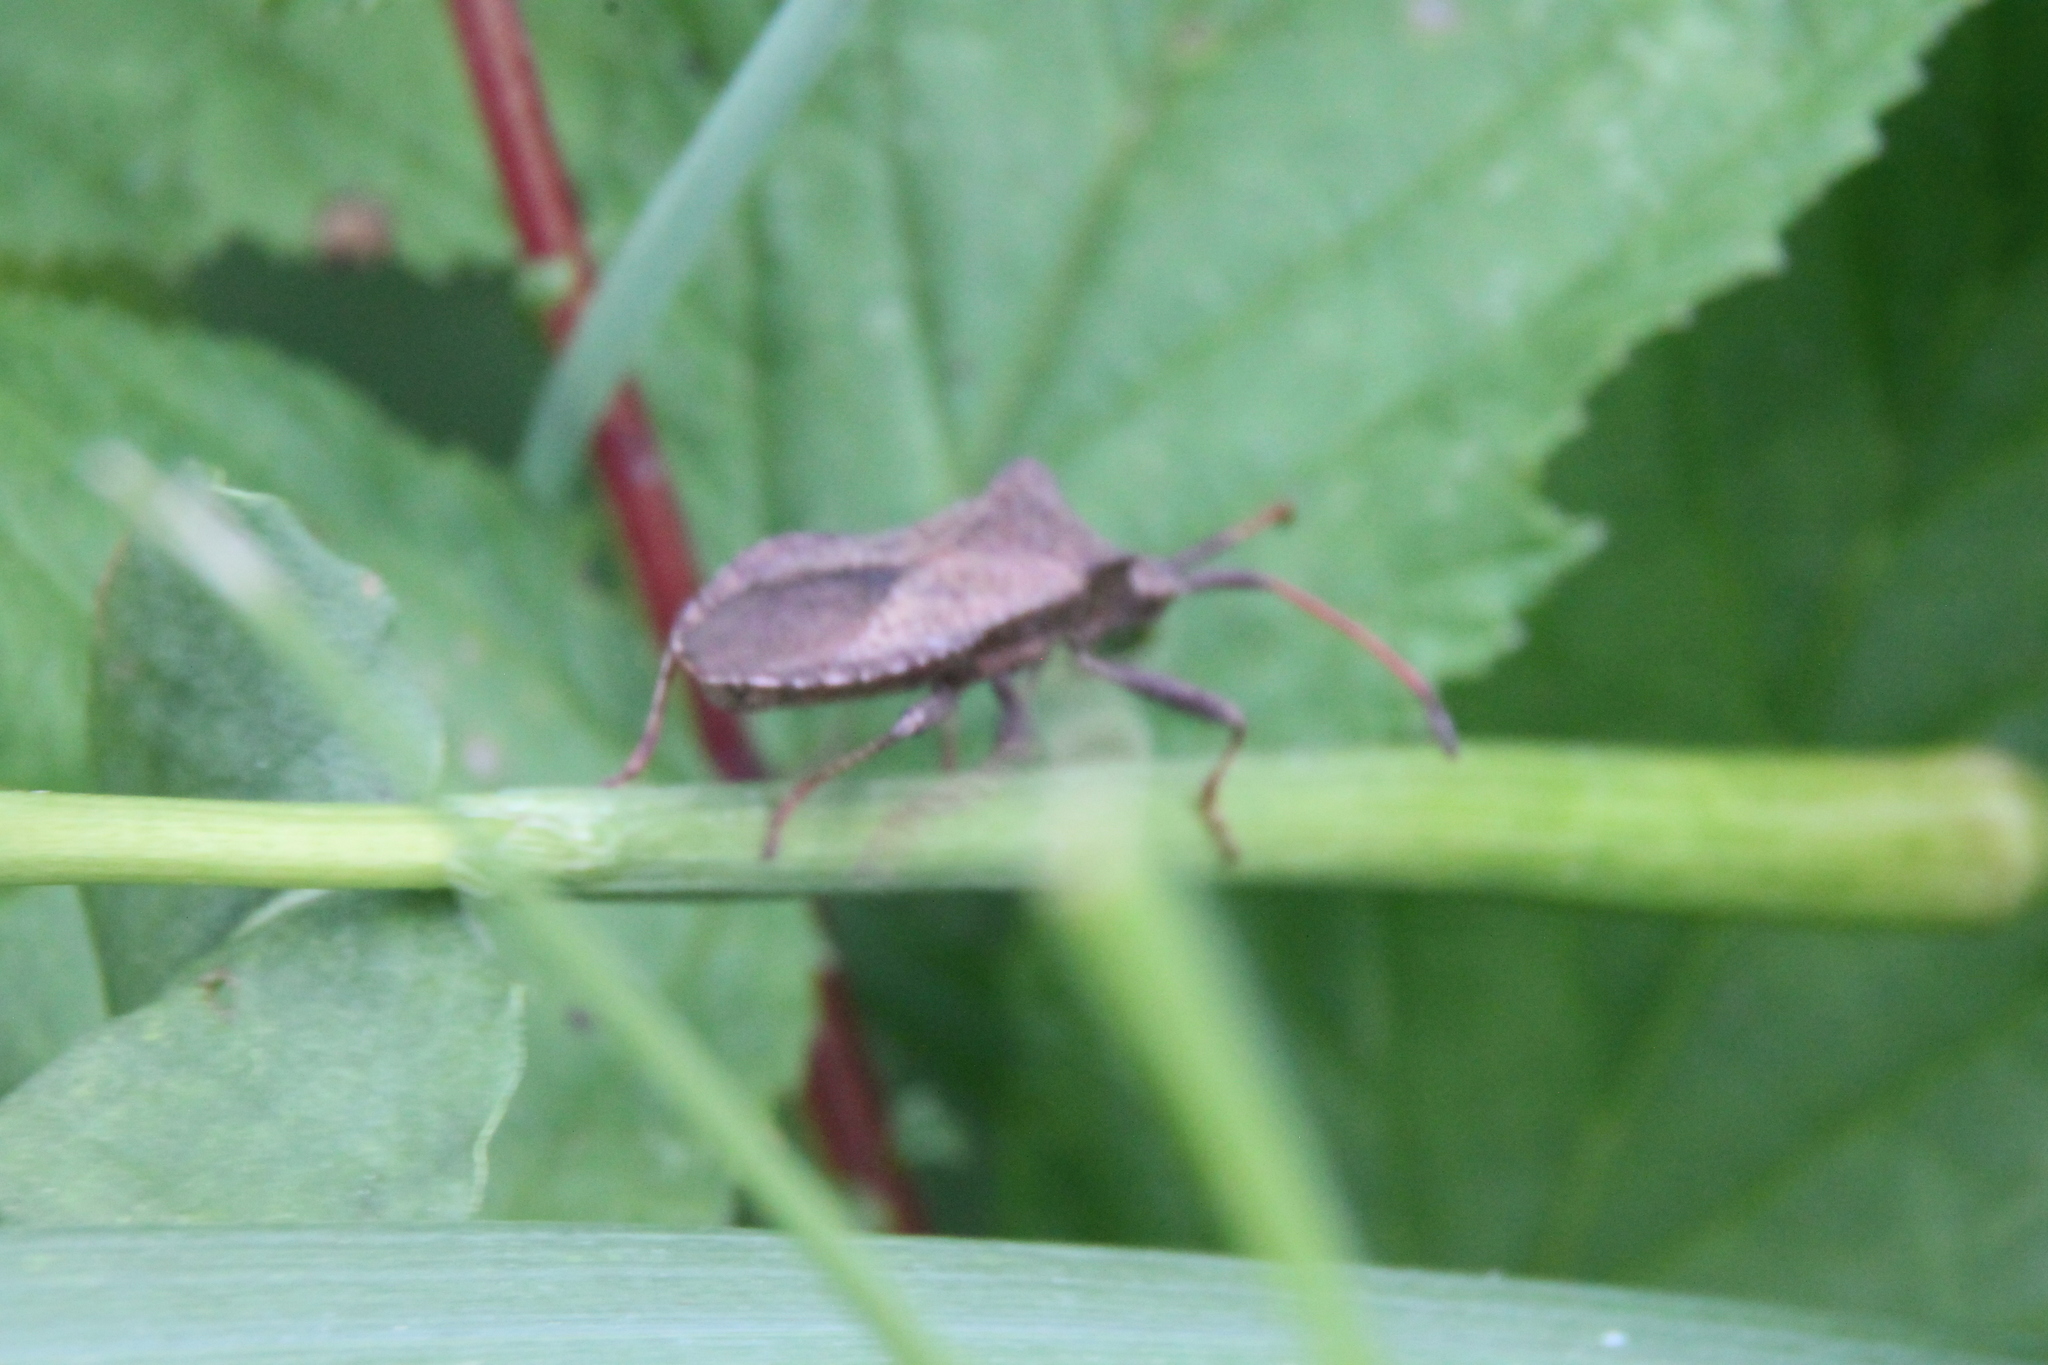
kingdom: Animalia
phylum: Arthropoda
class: Insecta
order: Hemiptera
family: Coreidae
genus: Coreus
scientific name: Coreus marginatus
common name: Dock bug
